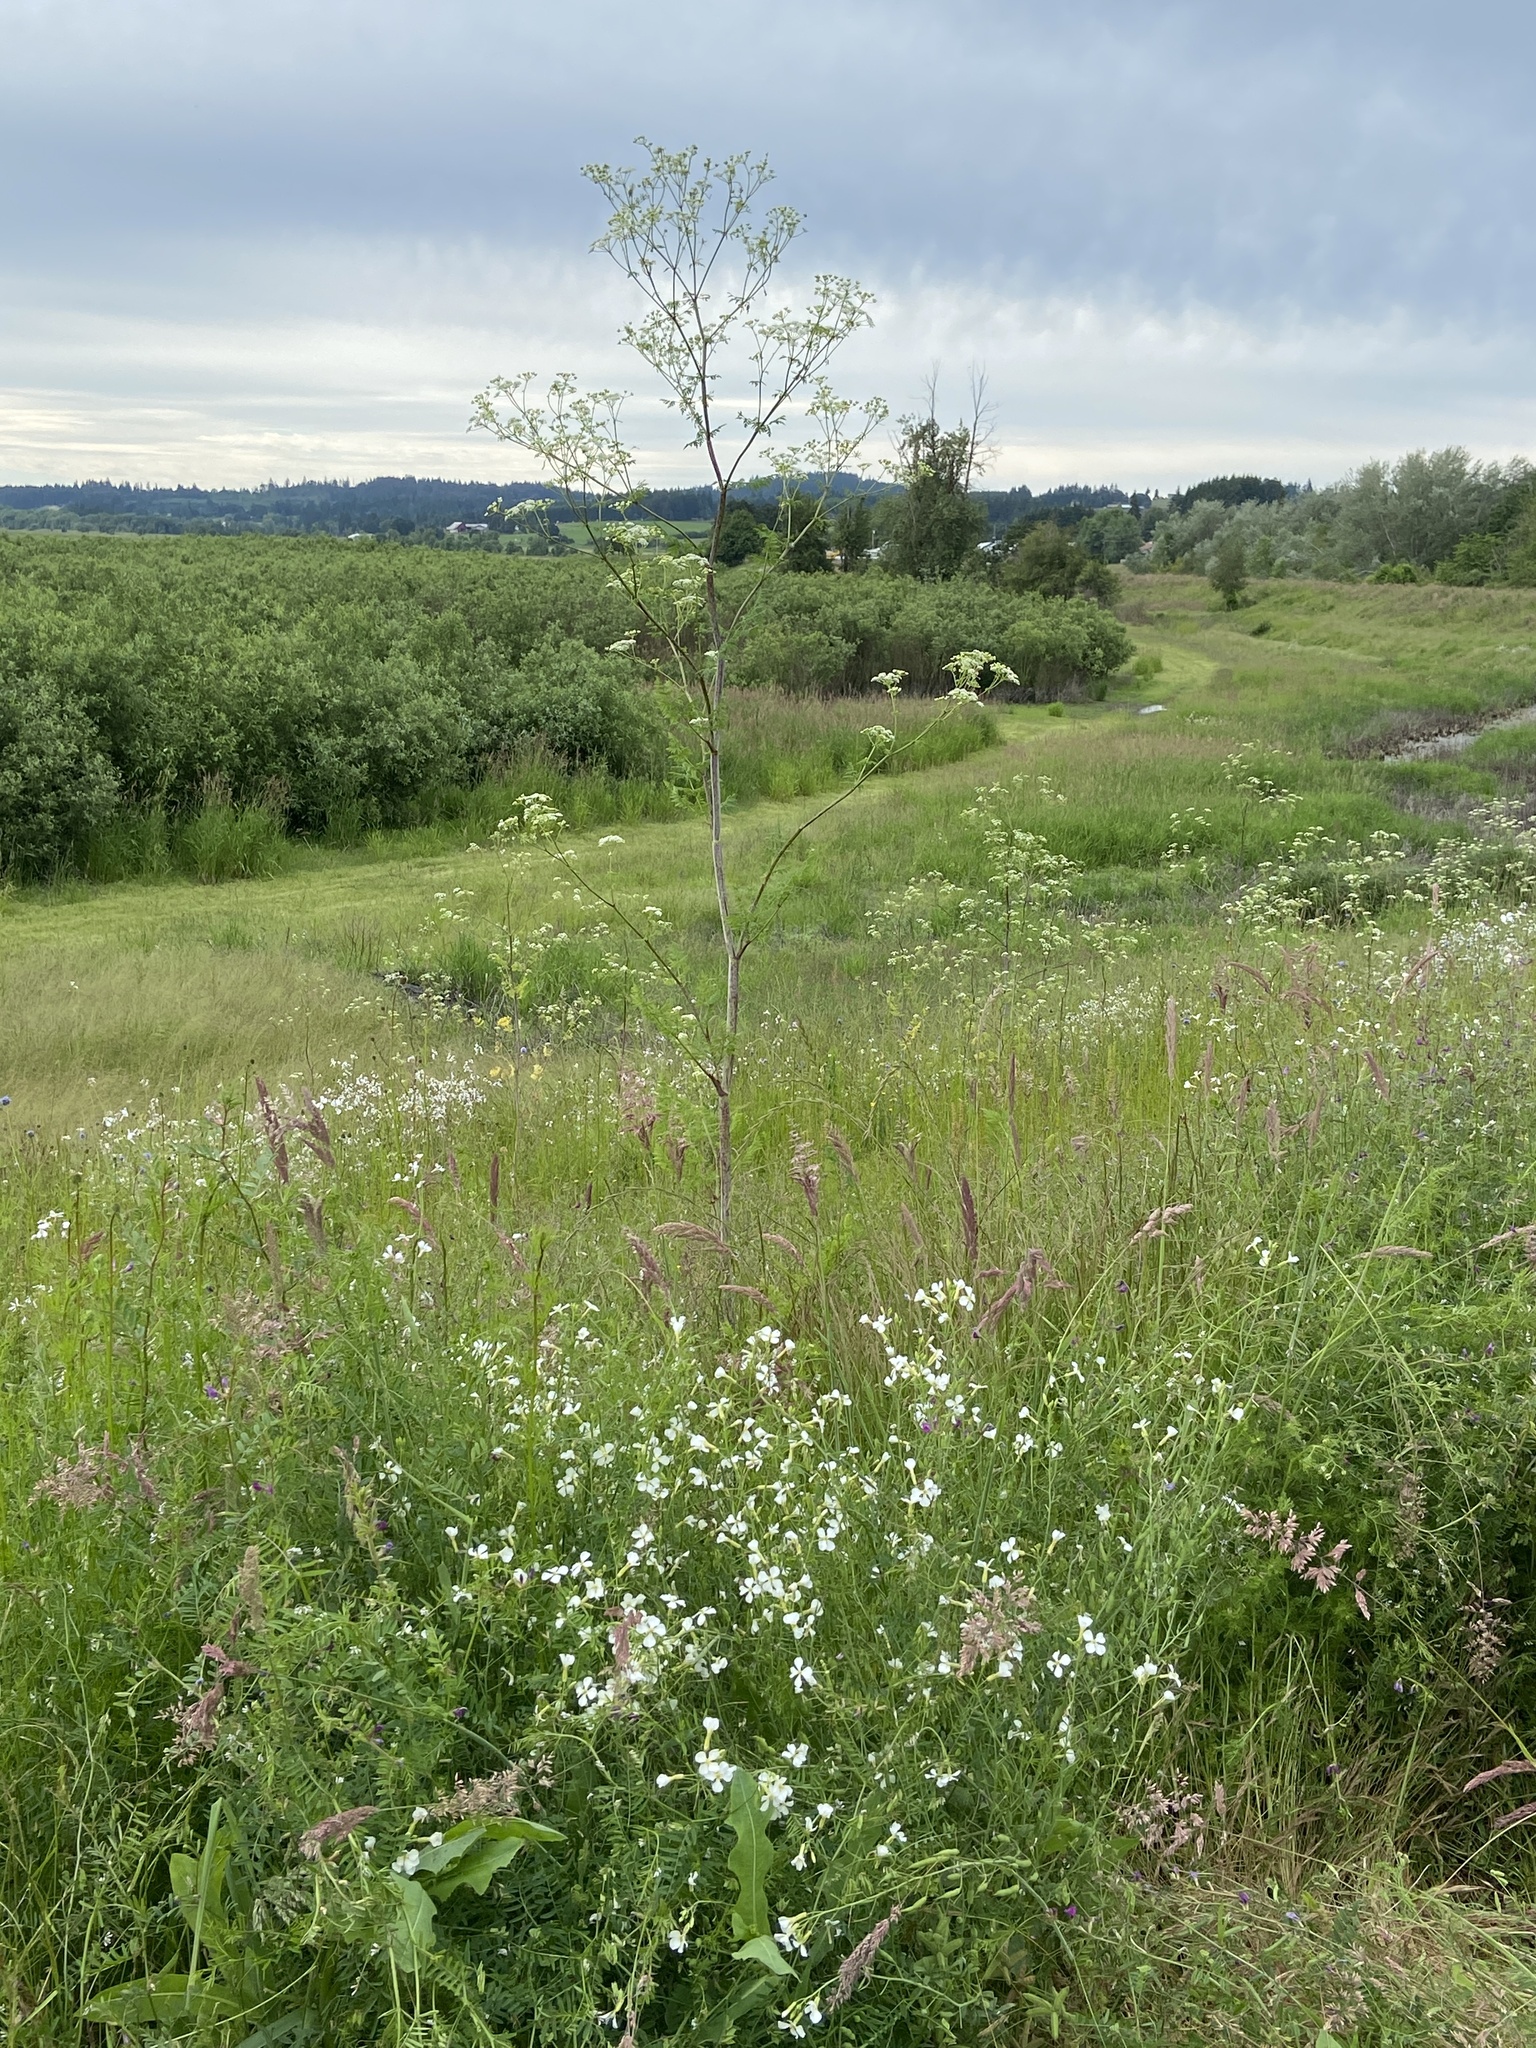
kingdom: Plantae
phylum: Tracheophyta
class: Magnoliopsida
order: Apiales
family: Apiaceae
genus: Conium
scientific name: Conium maculatum
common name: Hemlock
